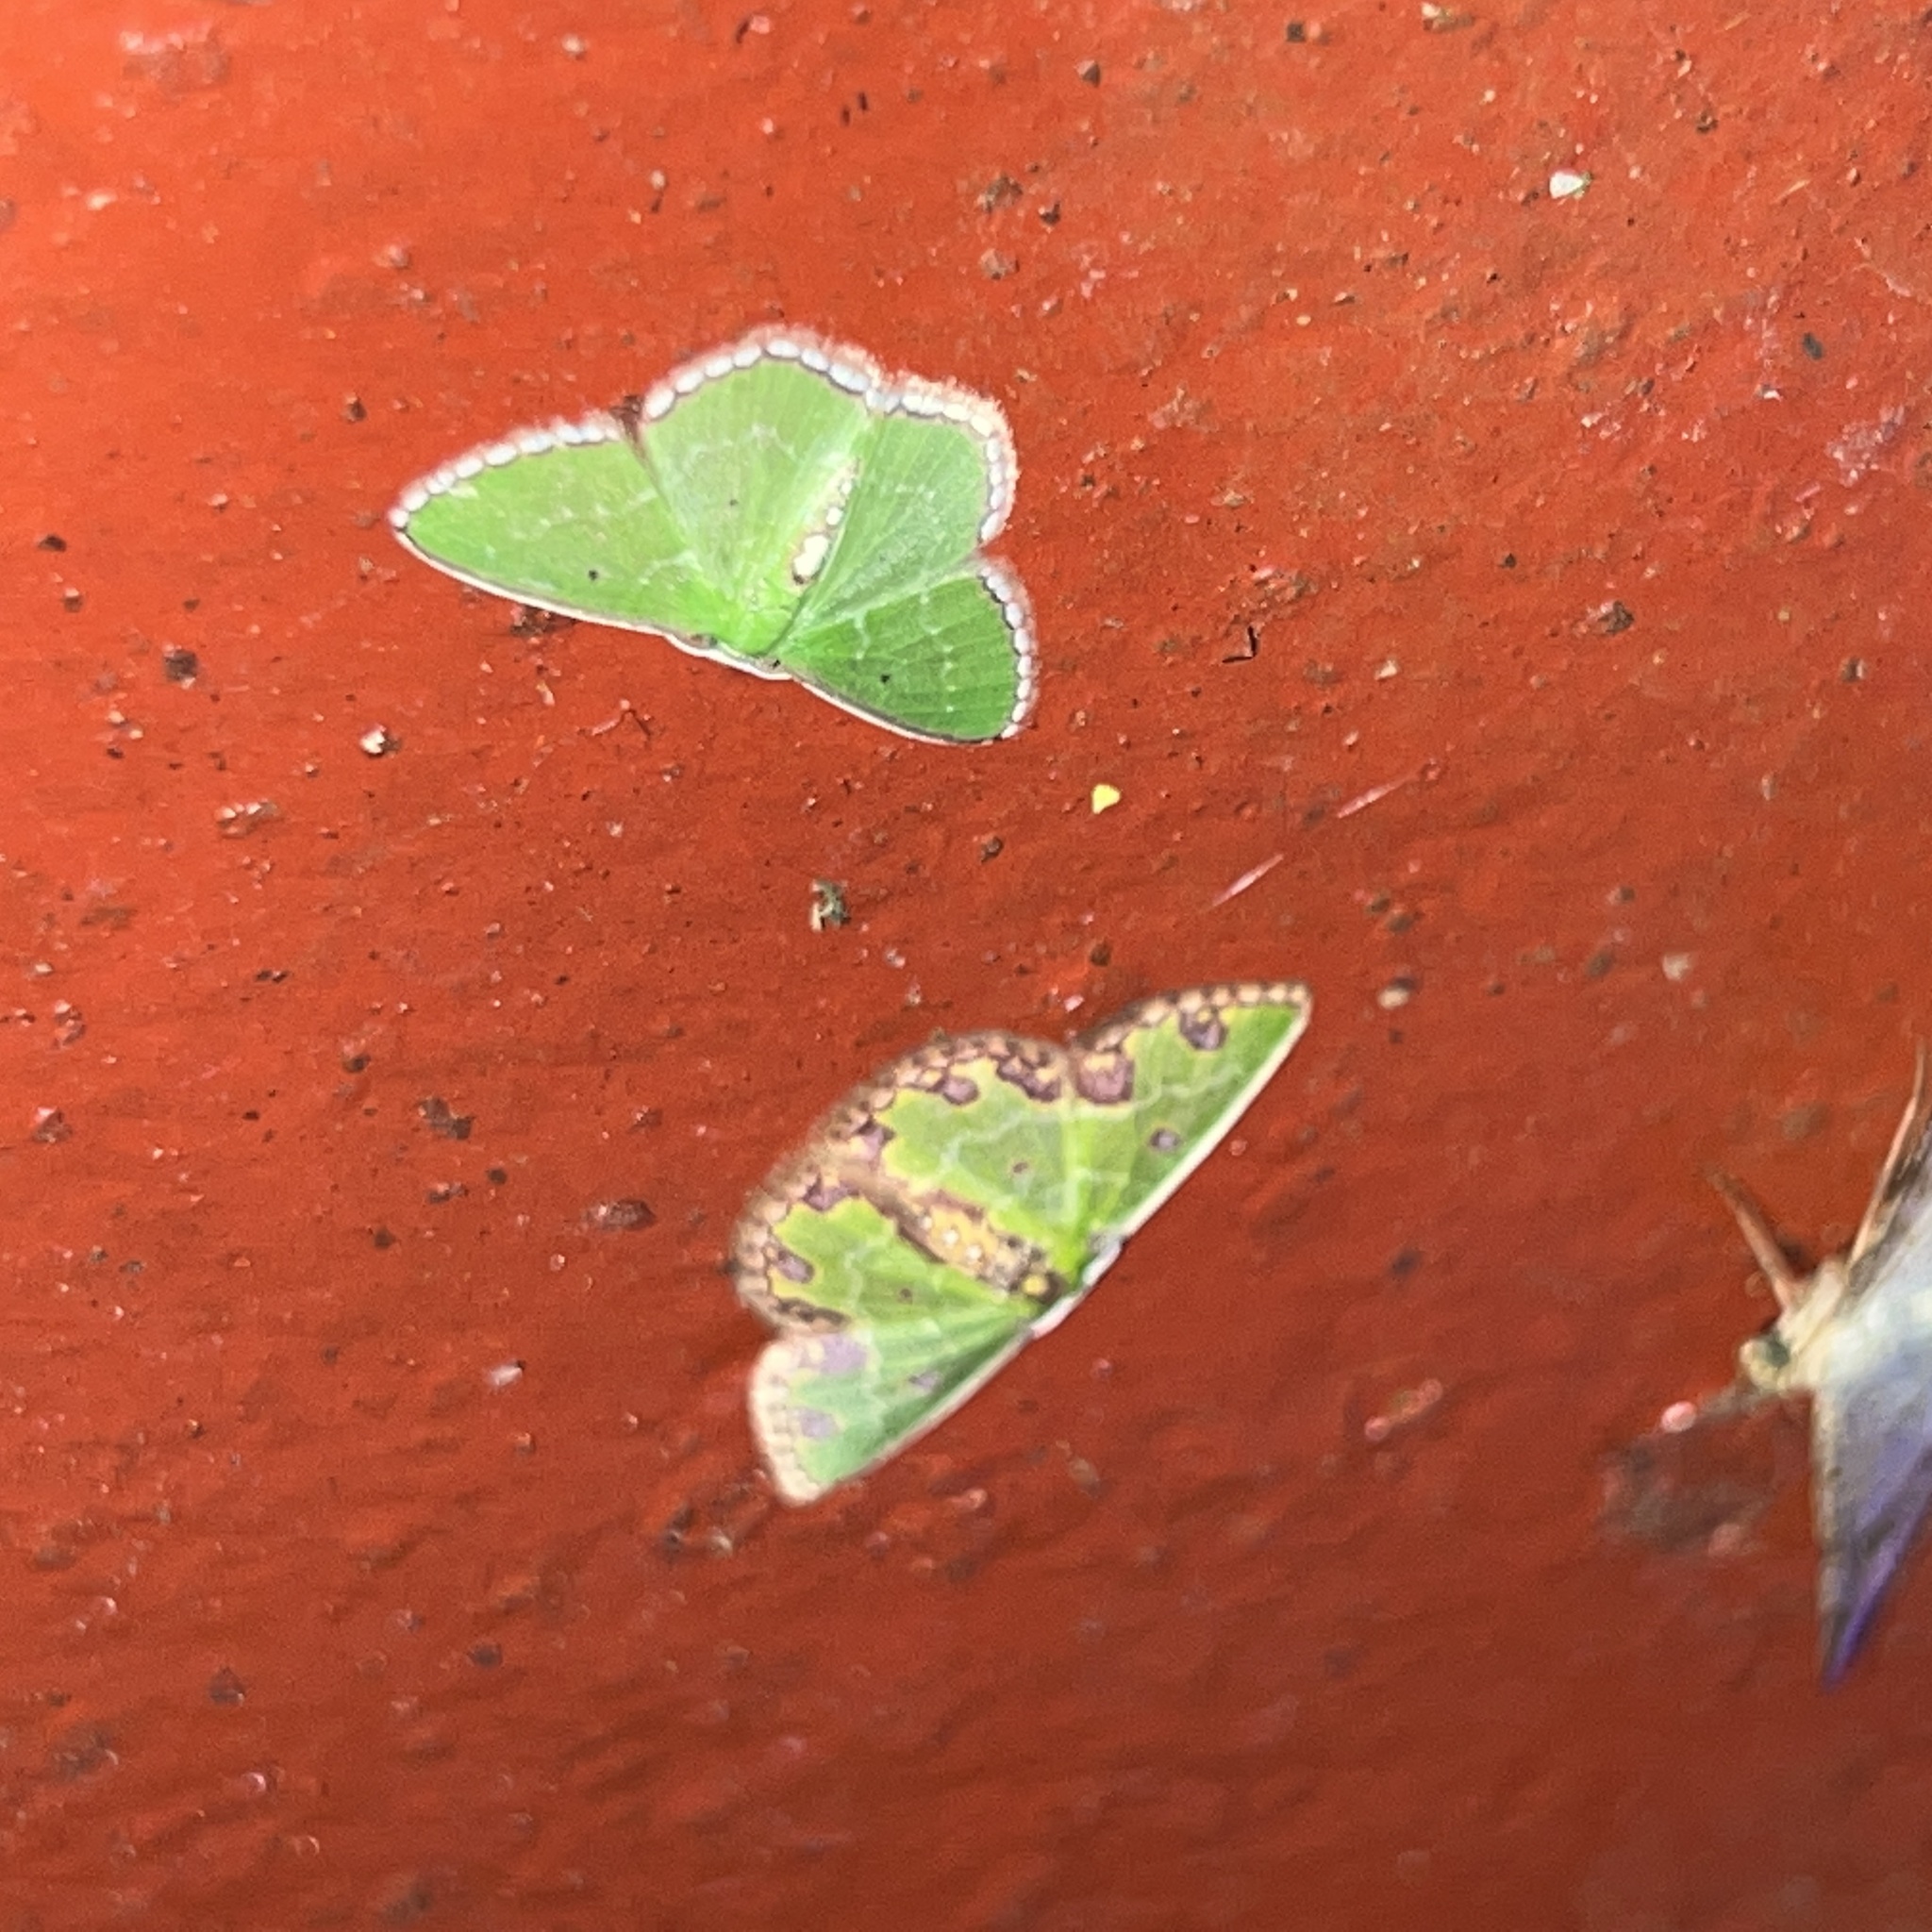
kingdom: Animalia
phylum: Arthropoda
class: Insecta
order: Lepidoptera
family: Geometridae
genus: Synchlora
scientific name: Synchlora gerularia
